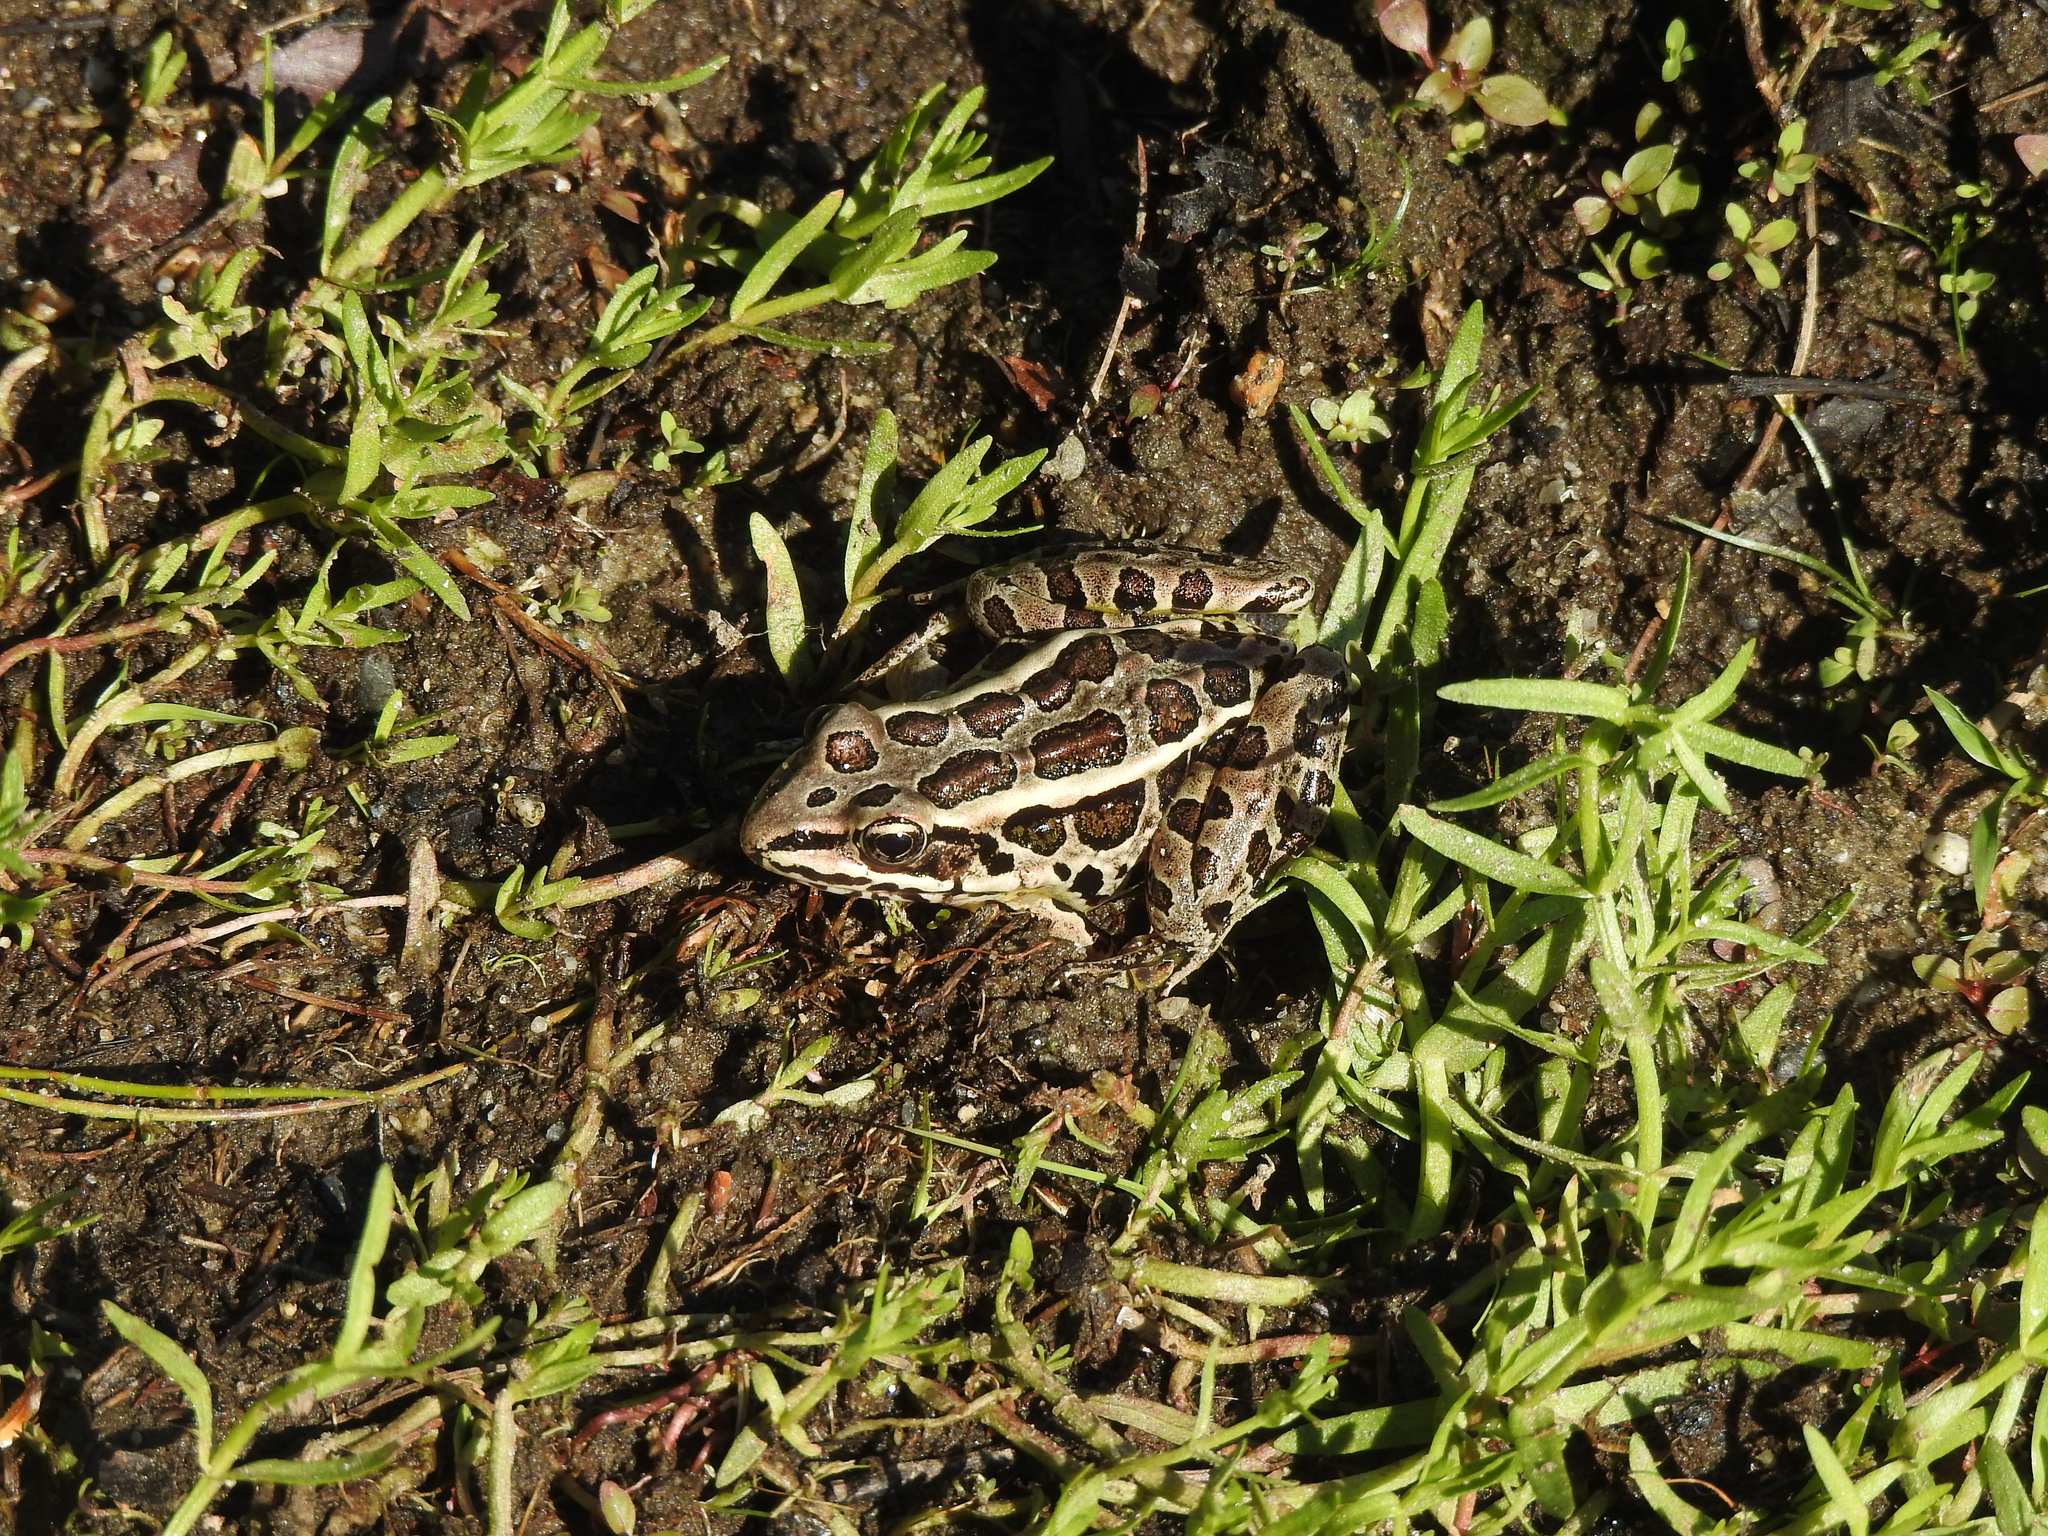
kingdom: Animalia
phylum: Chordata
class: Amphibia
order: Anura
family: Ranidae
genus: Lithobates
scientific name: Lithobates palustris
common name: Pickerel frog
